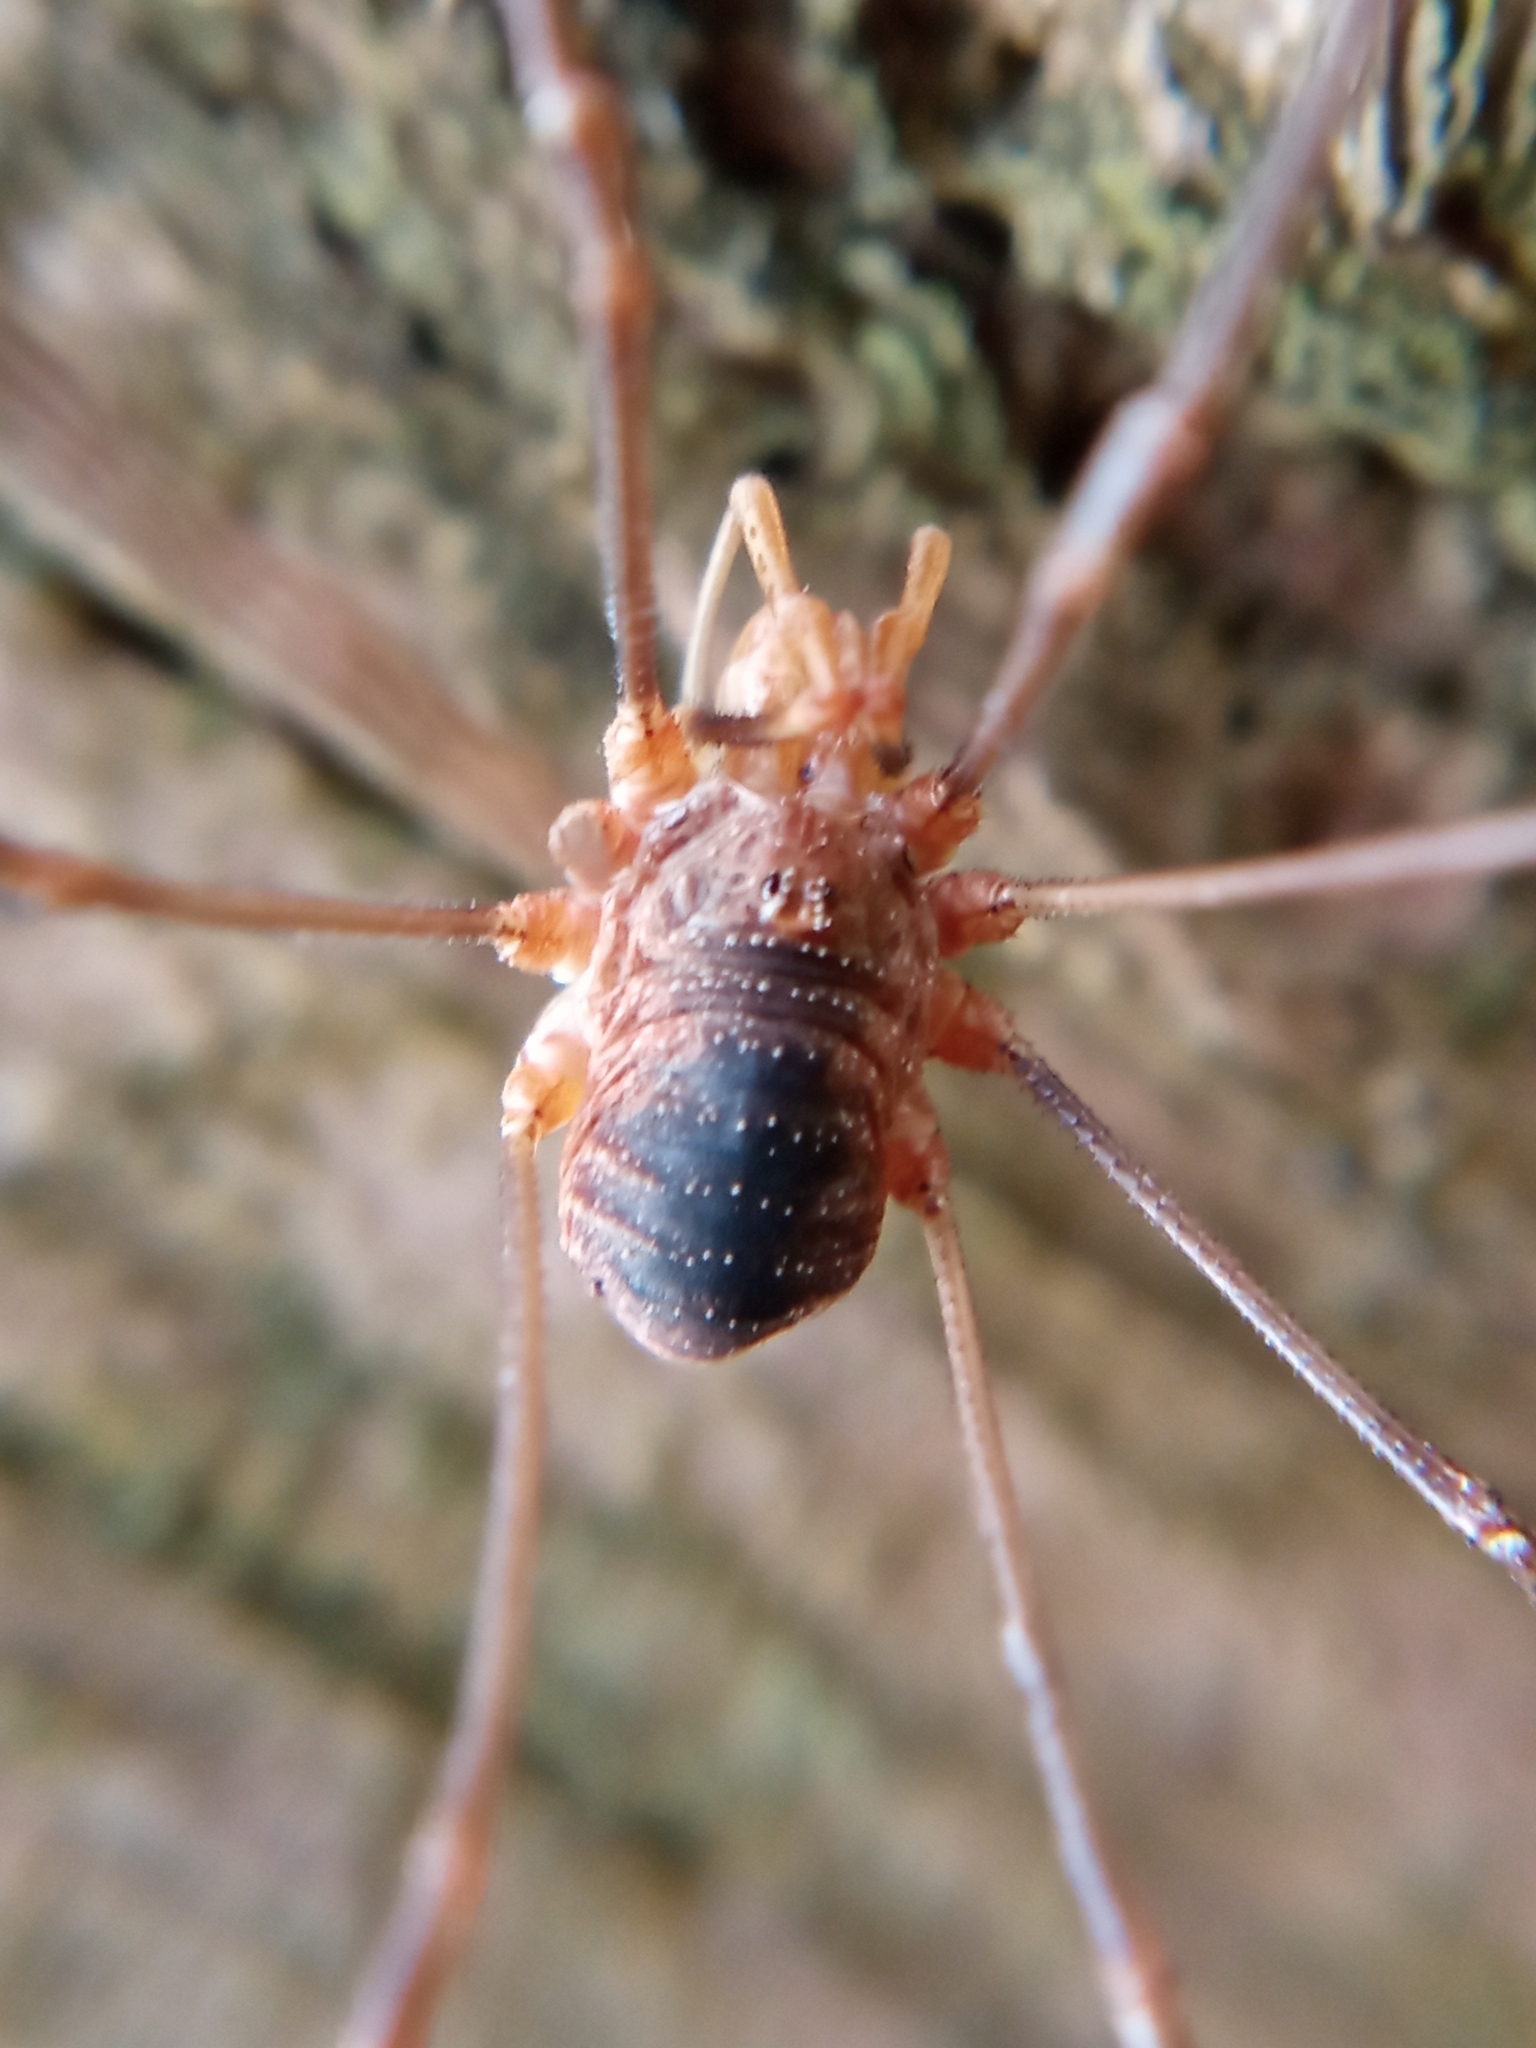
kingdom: Animalia
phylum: Arthropoda
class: Arachnida
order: Opiliones
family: Phalangiidae
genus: Phalangium
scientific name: Phalangium opilio
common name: Daddy longleg
